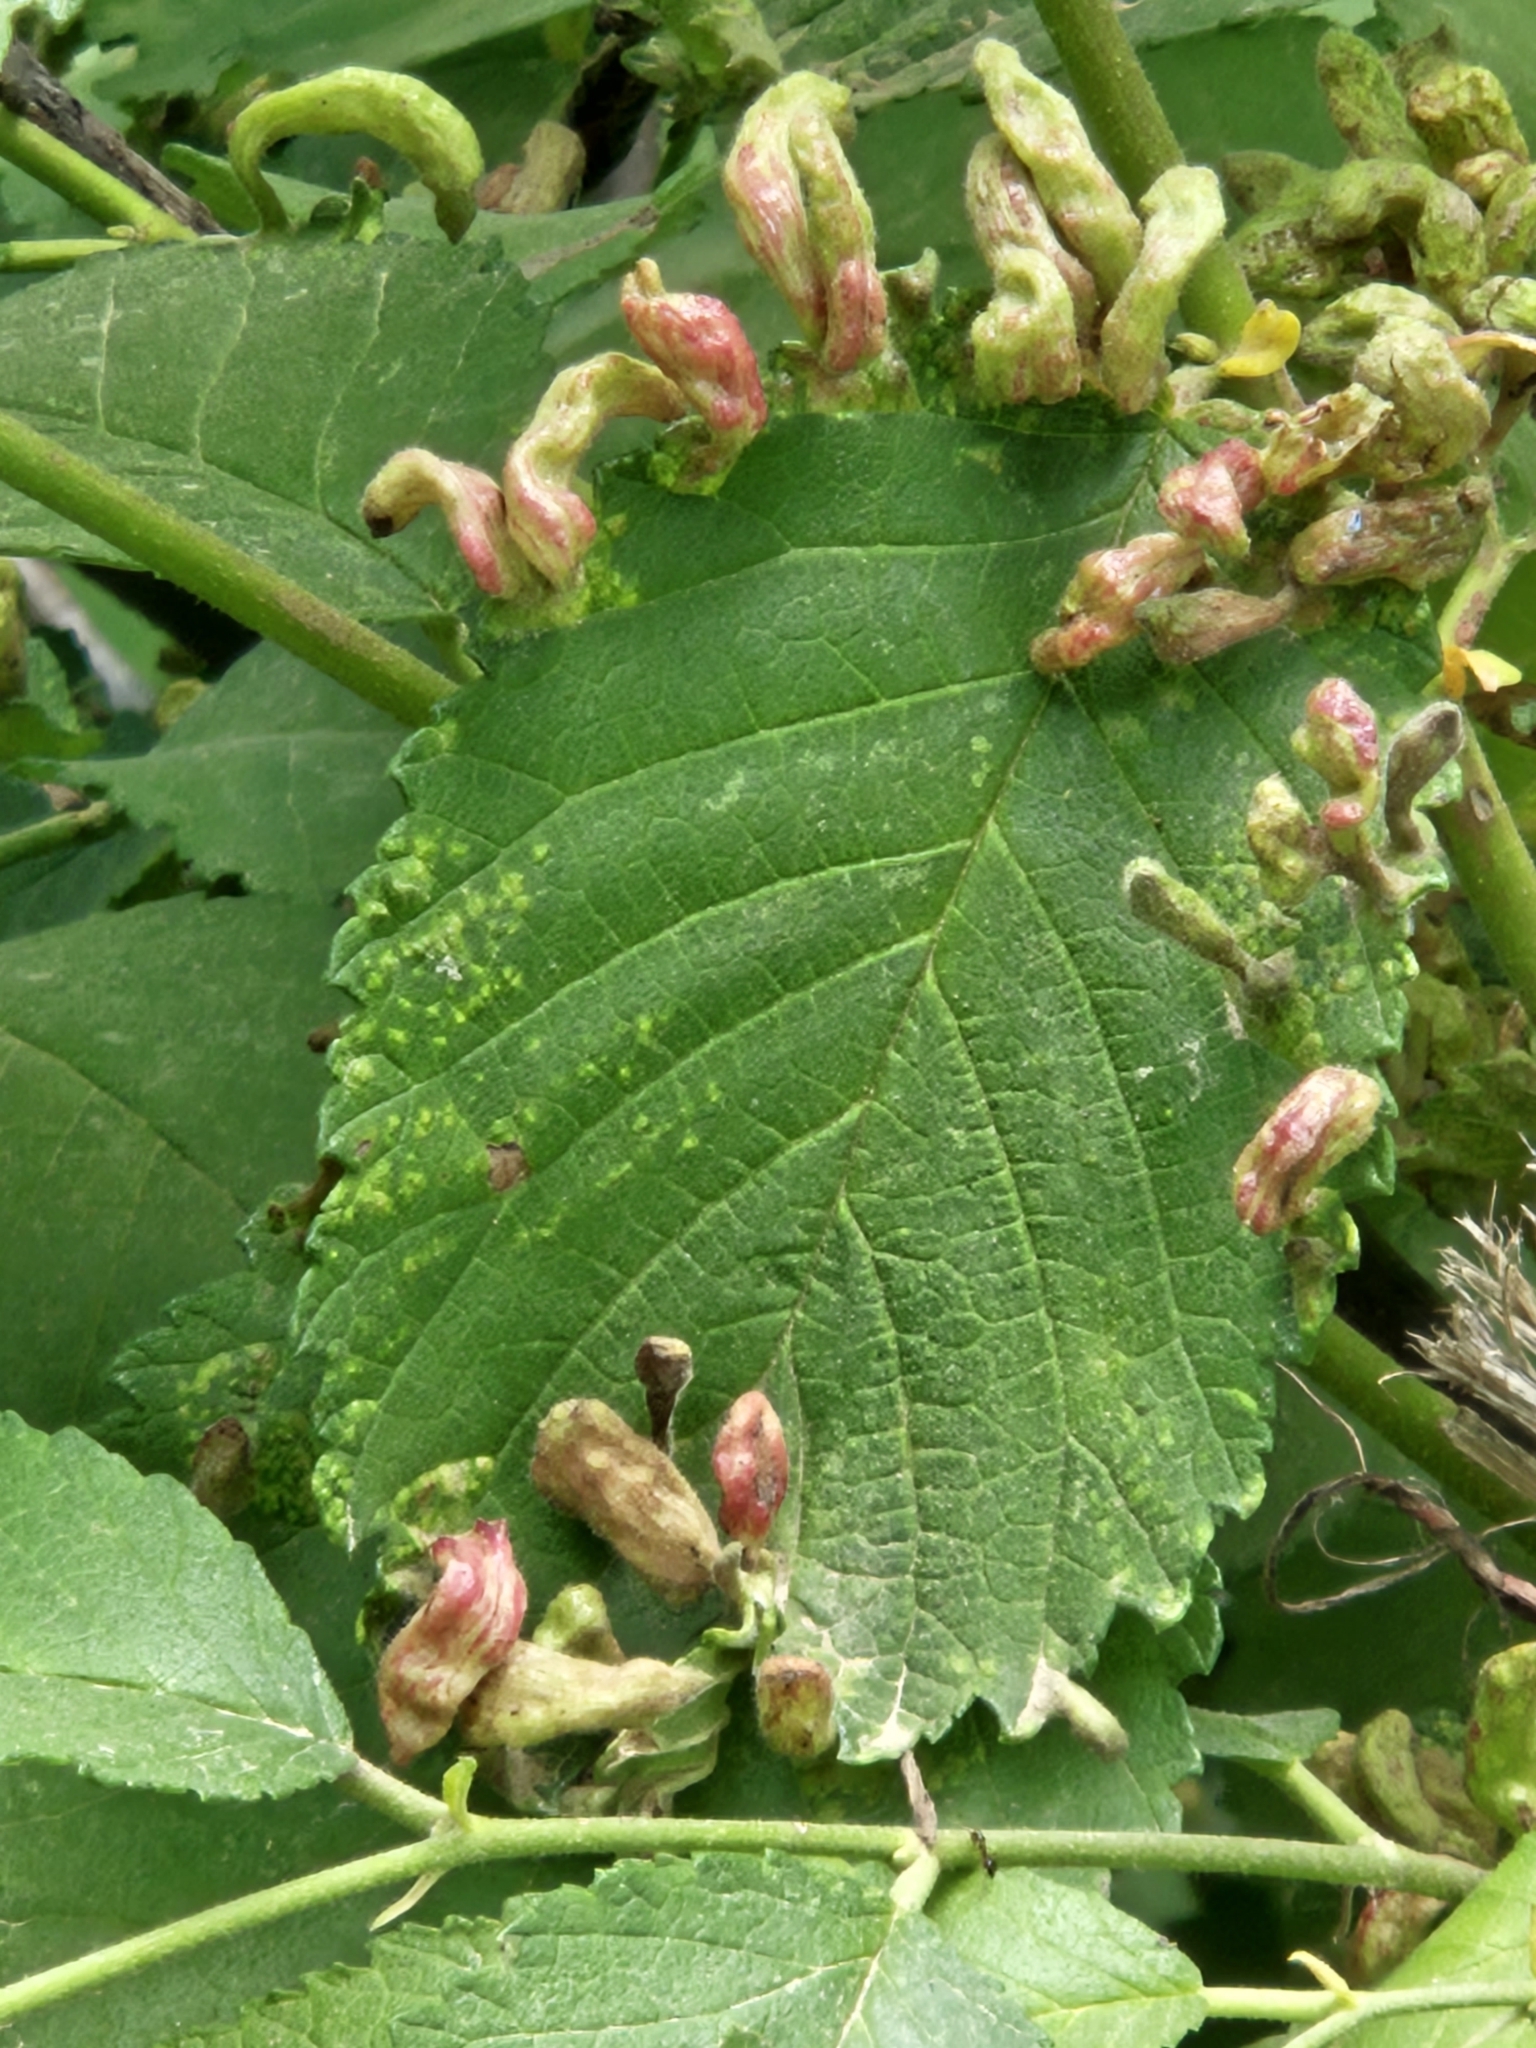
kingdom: Animalia
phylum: Arthropoda
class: Insecta
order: Hemiptera
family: Aphididae
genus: Tetraneura
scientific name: Tetraneura nigriabdominalis
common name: Aphid
